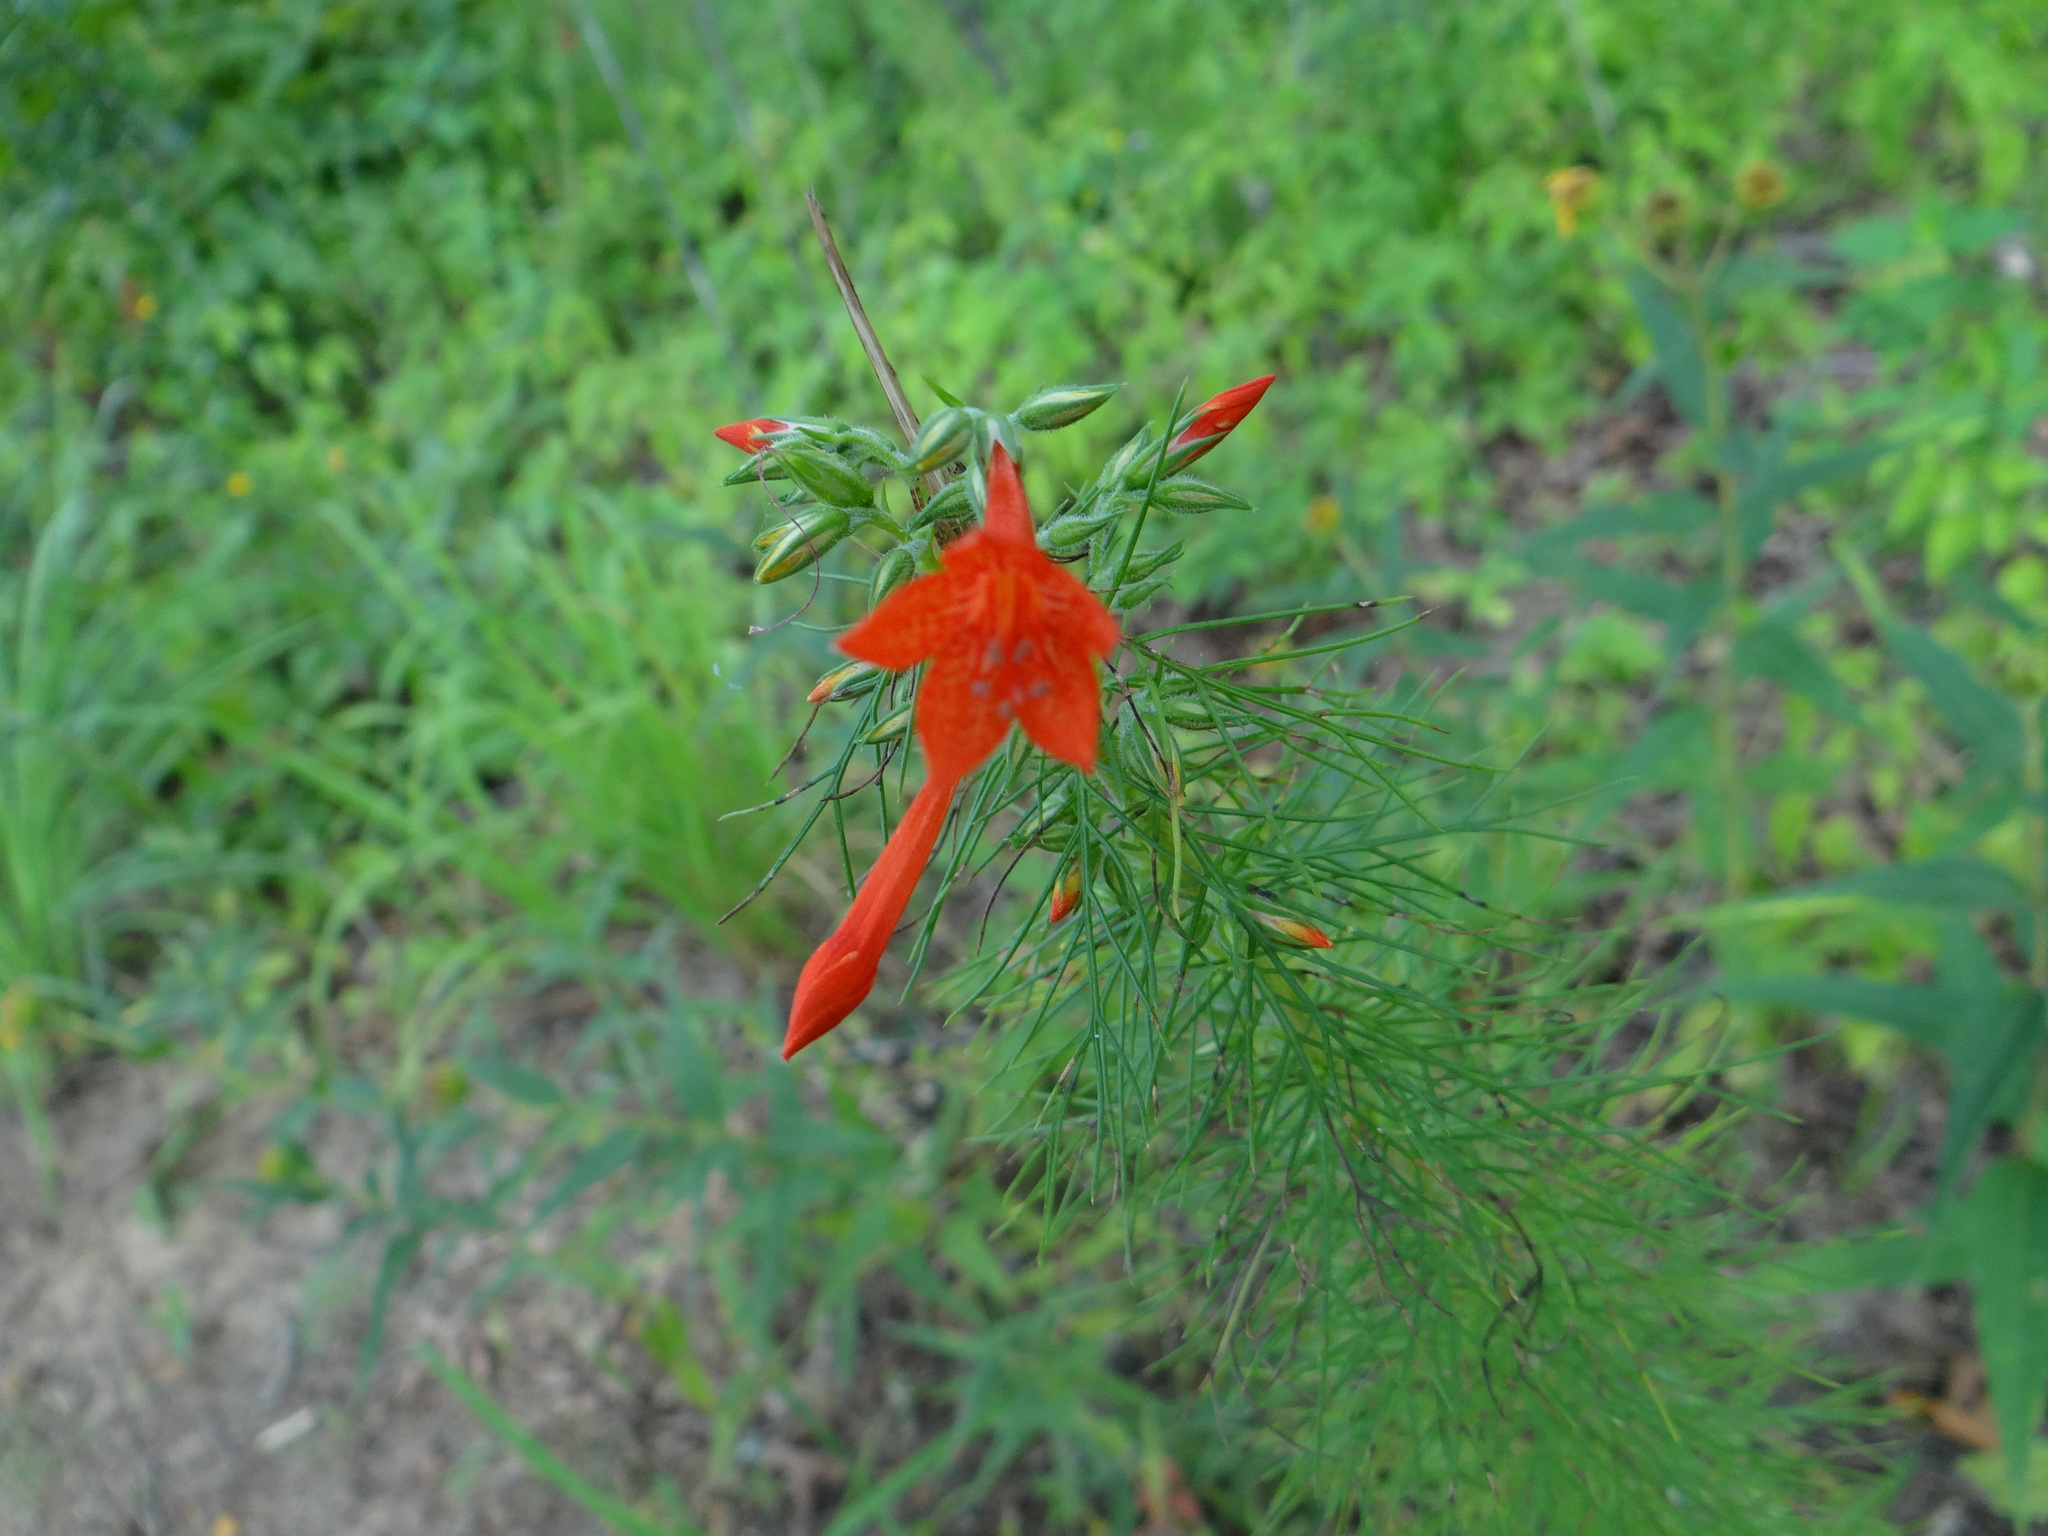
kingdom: Plantae
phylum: Tracheophyta
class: Magnoliopsida
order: Ericales
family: Polemoniaceae
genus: Ipomopsis
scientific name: Ipomopsis rubra
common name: Skyrocket
